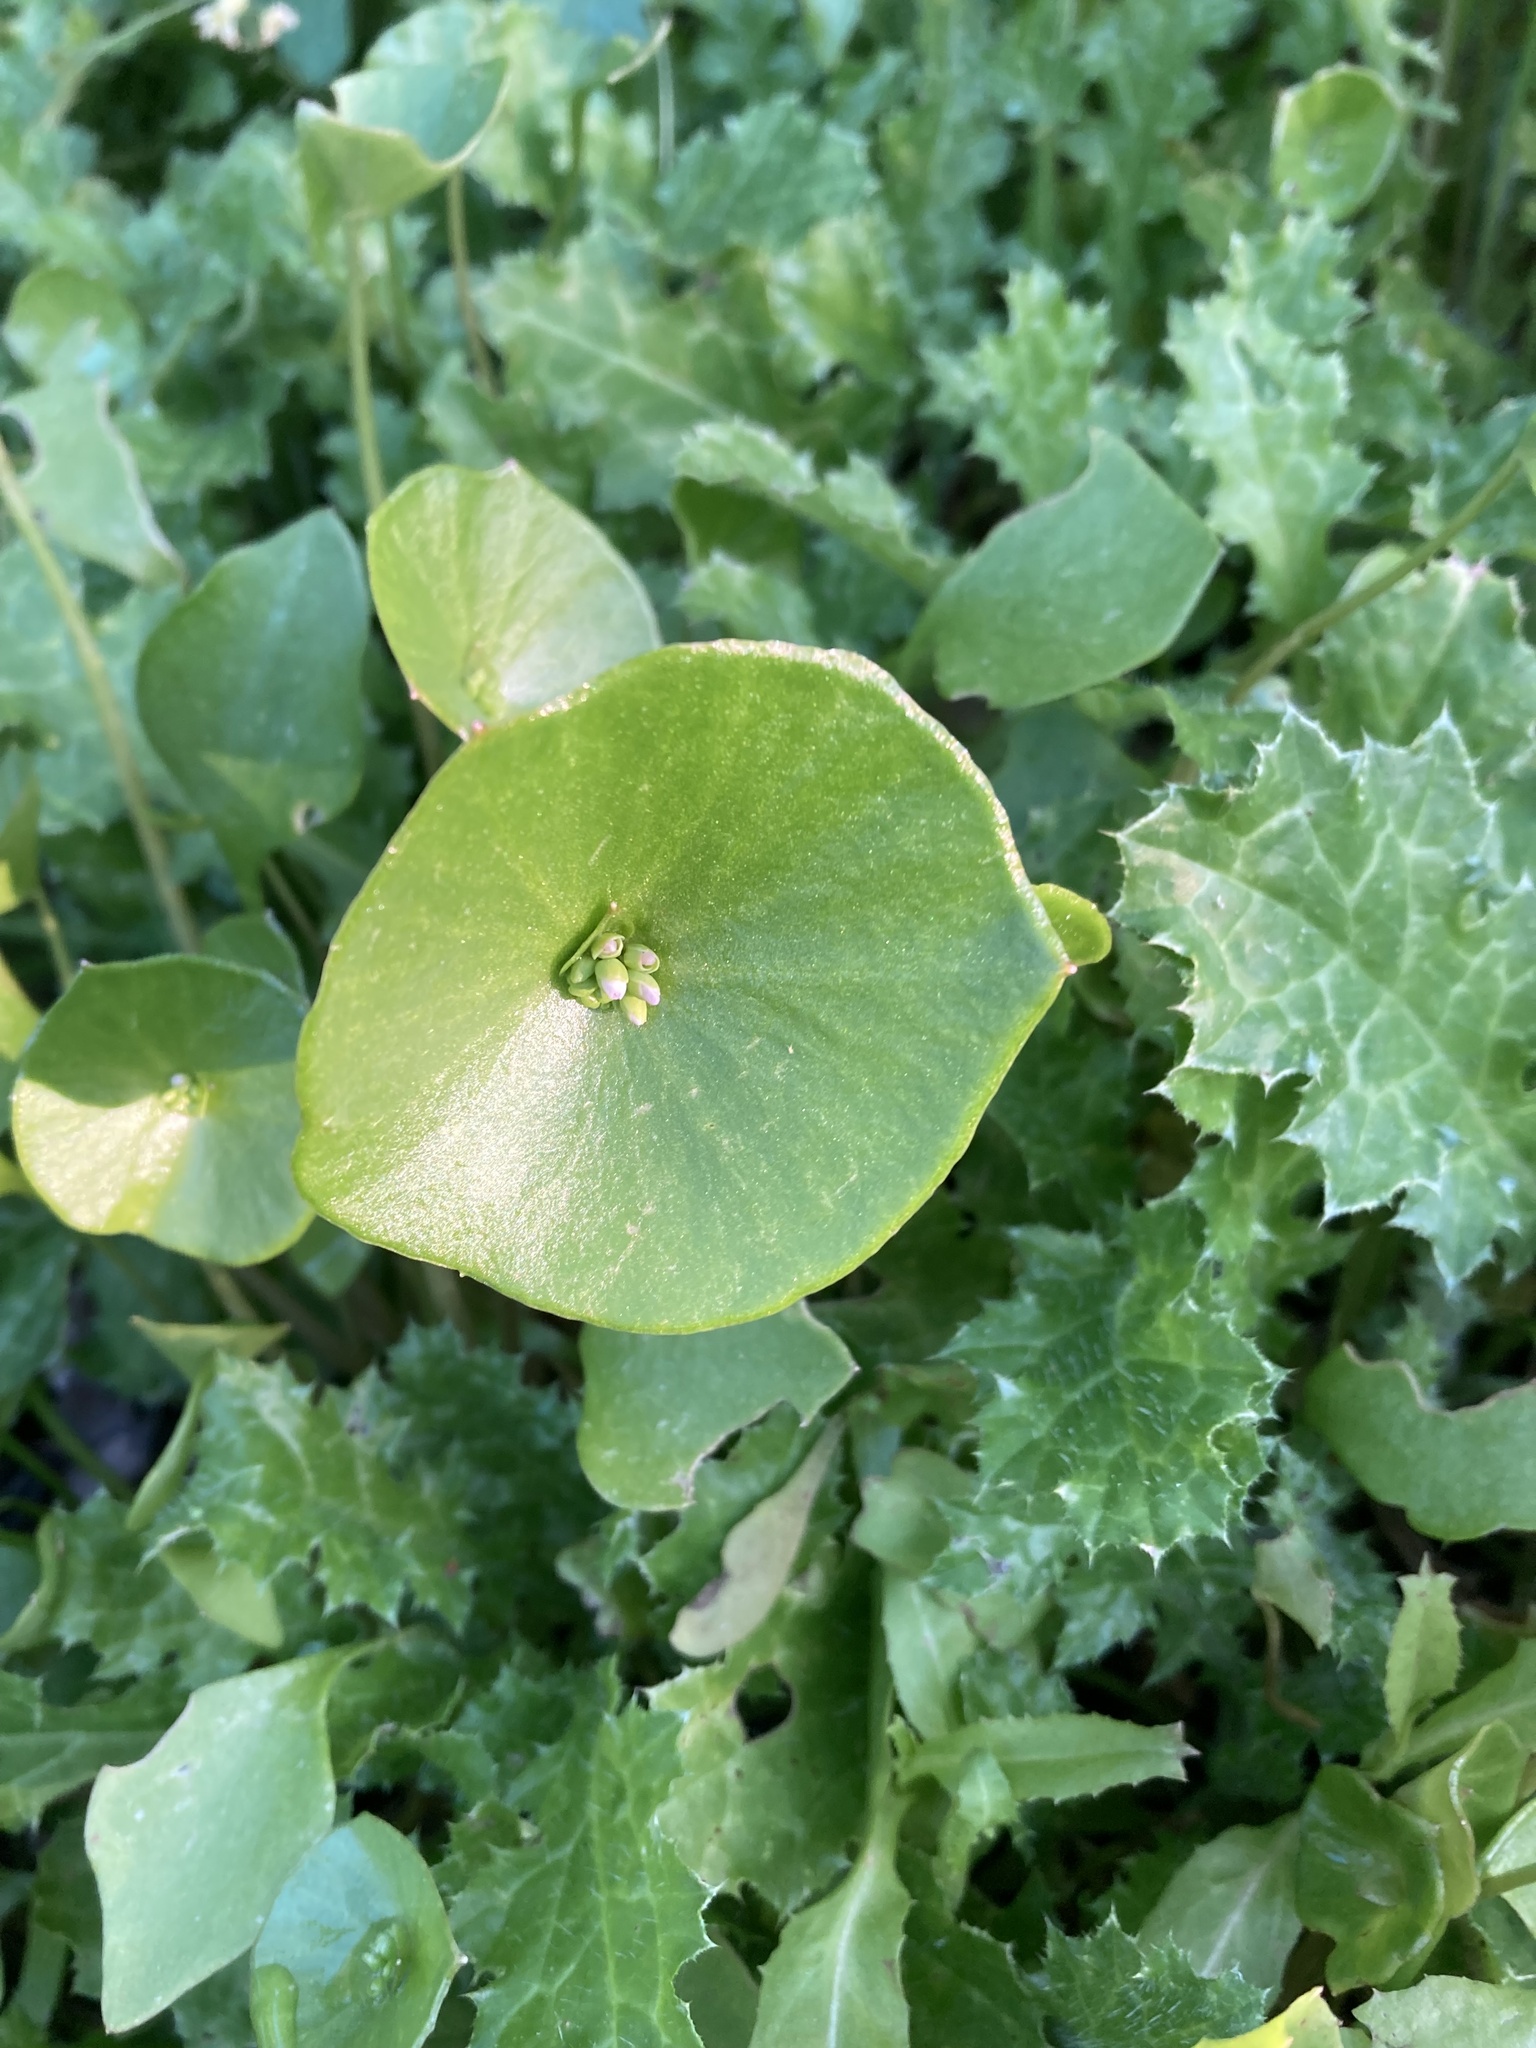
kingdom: Plantae
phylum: Tracheophyta
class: Magnoliopsida
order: Caryophyllales
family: Montiaceae
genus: Claytonia
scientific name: Claytonia perfoliata
